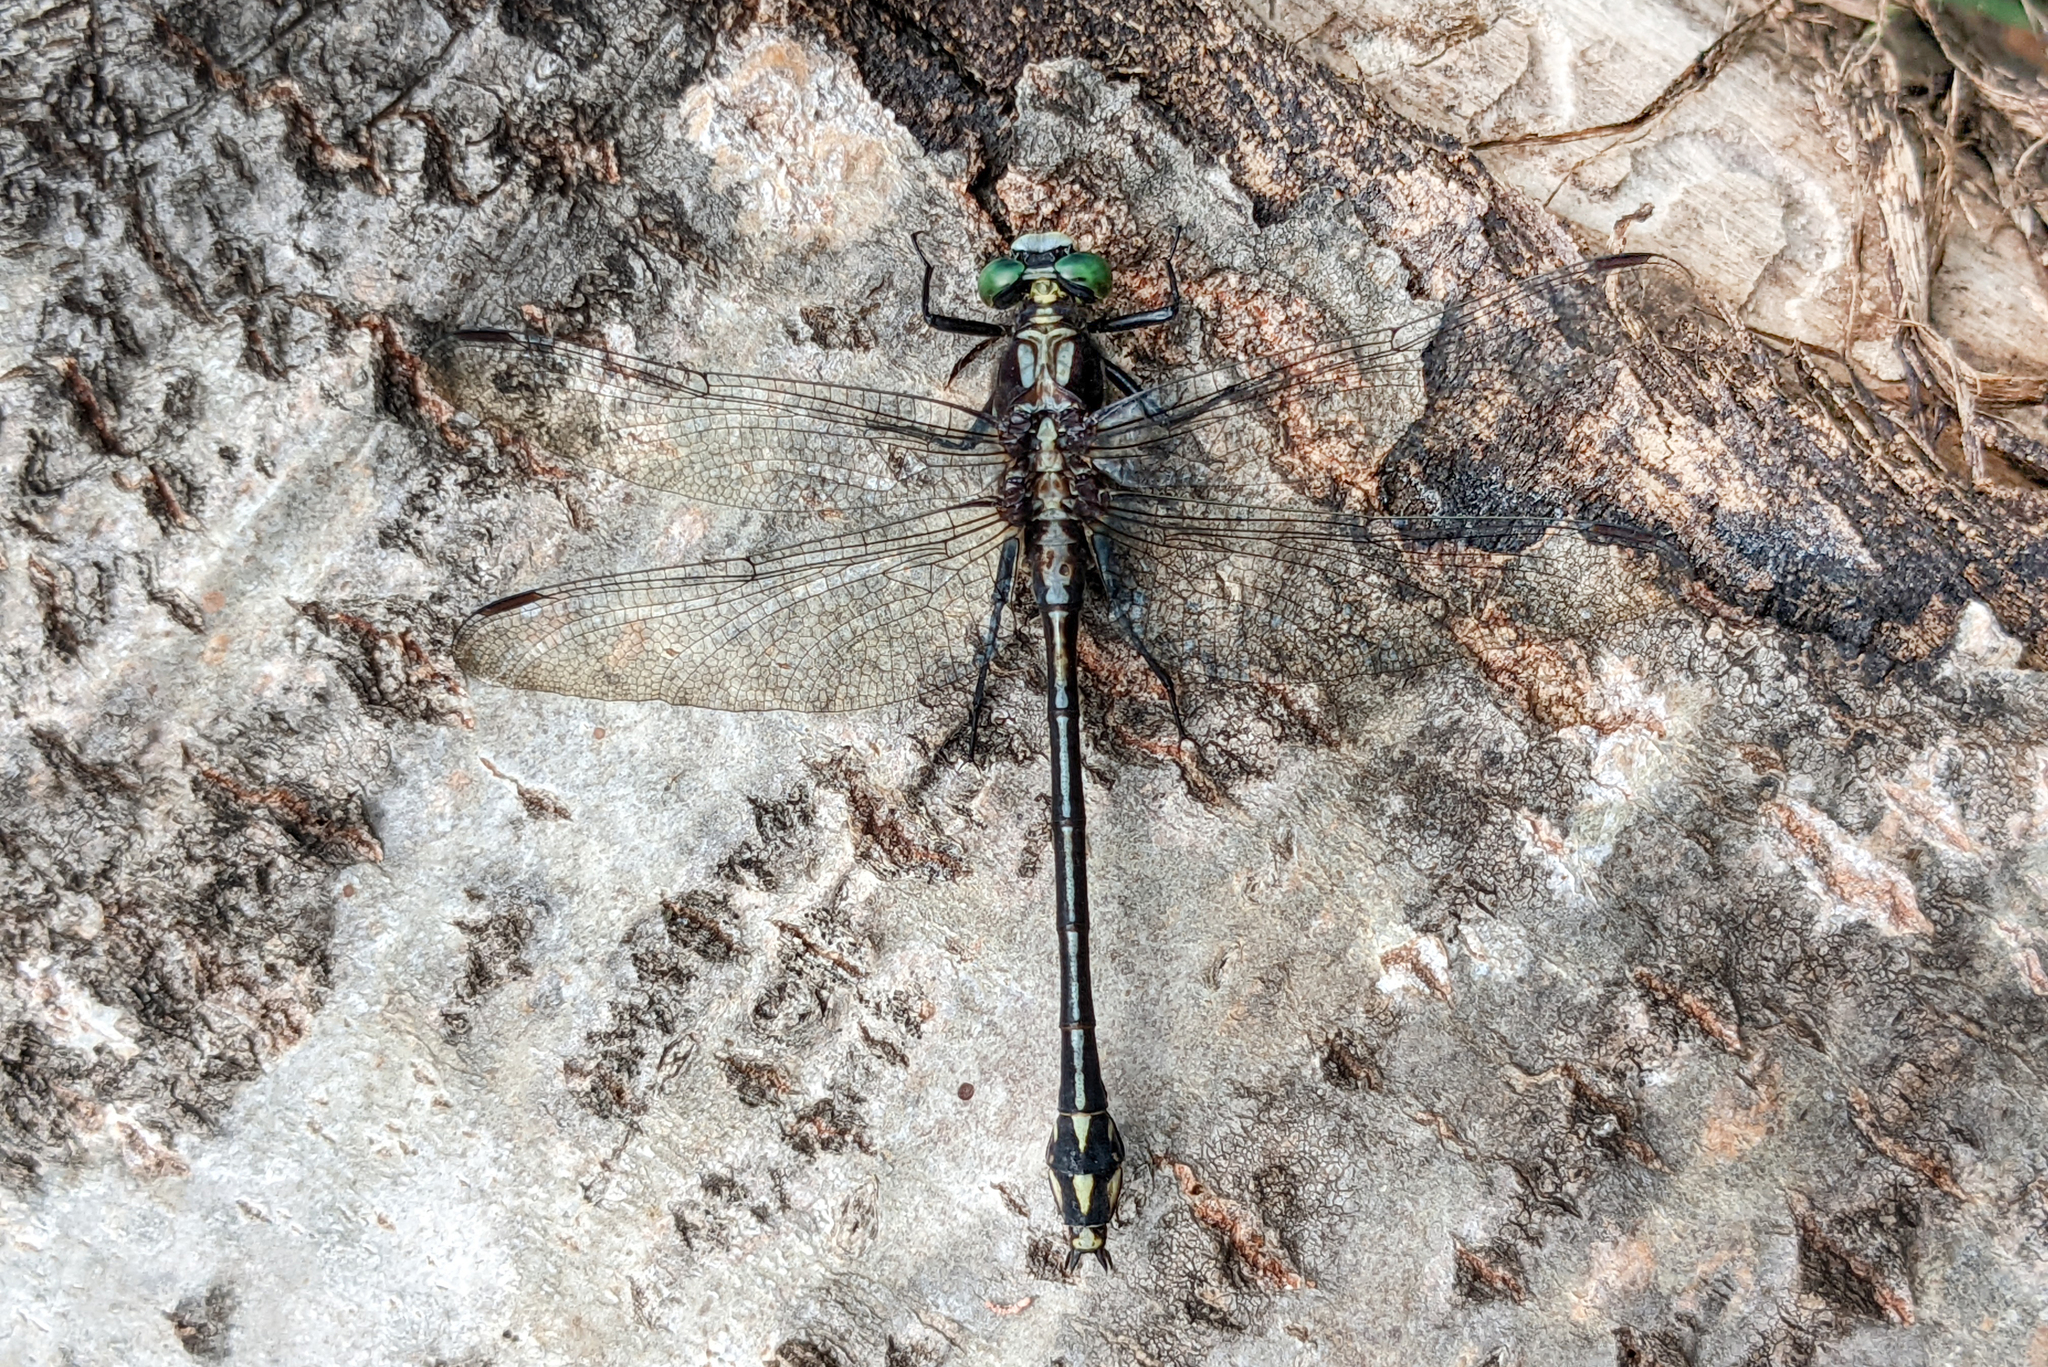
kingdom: Animalia
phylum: Arthropoda
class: Insecta
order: Odonata
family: Gomphidae
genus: Dromogomphus
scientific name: Dromogomphus spinosus
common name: Black-shouldered spinyleg
